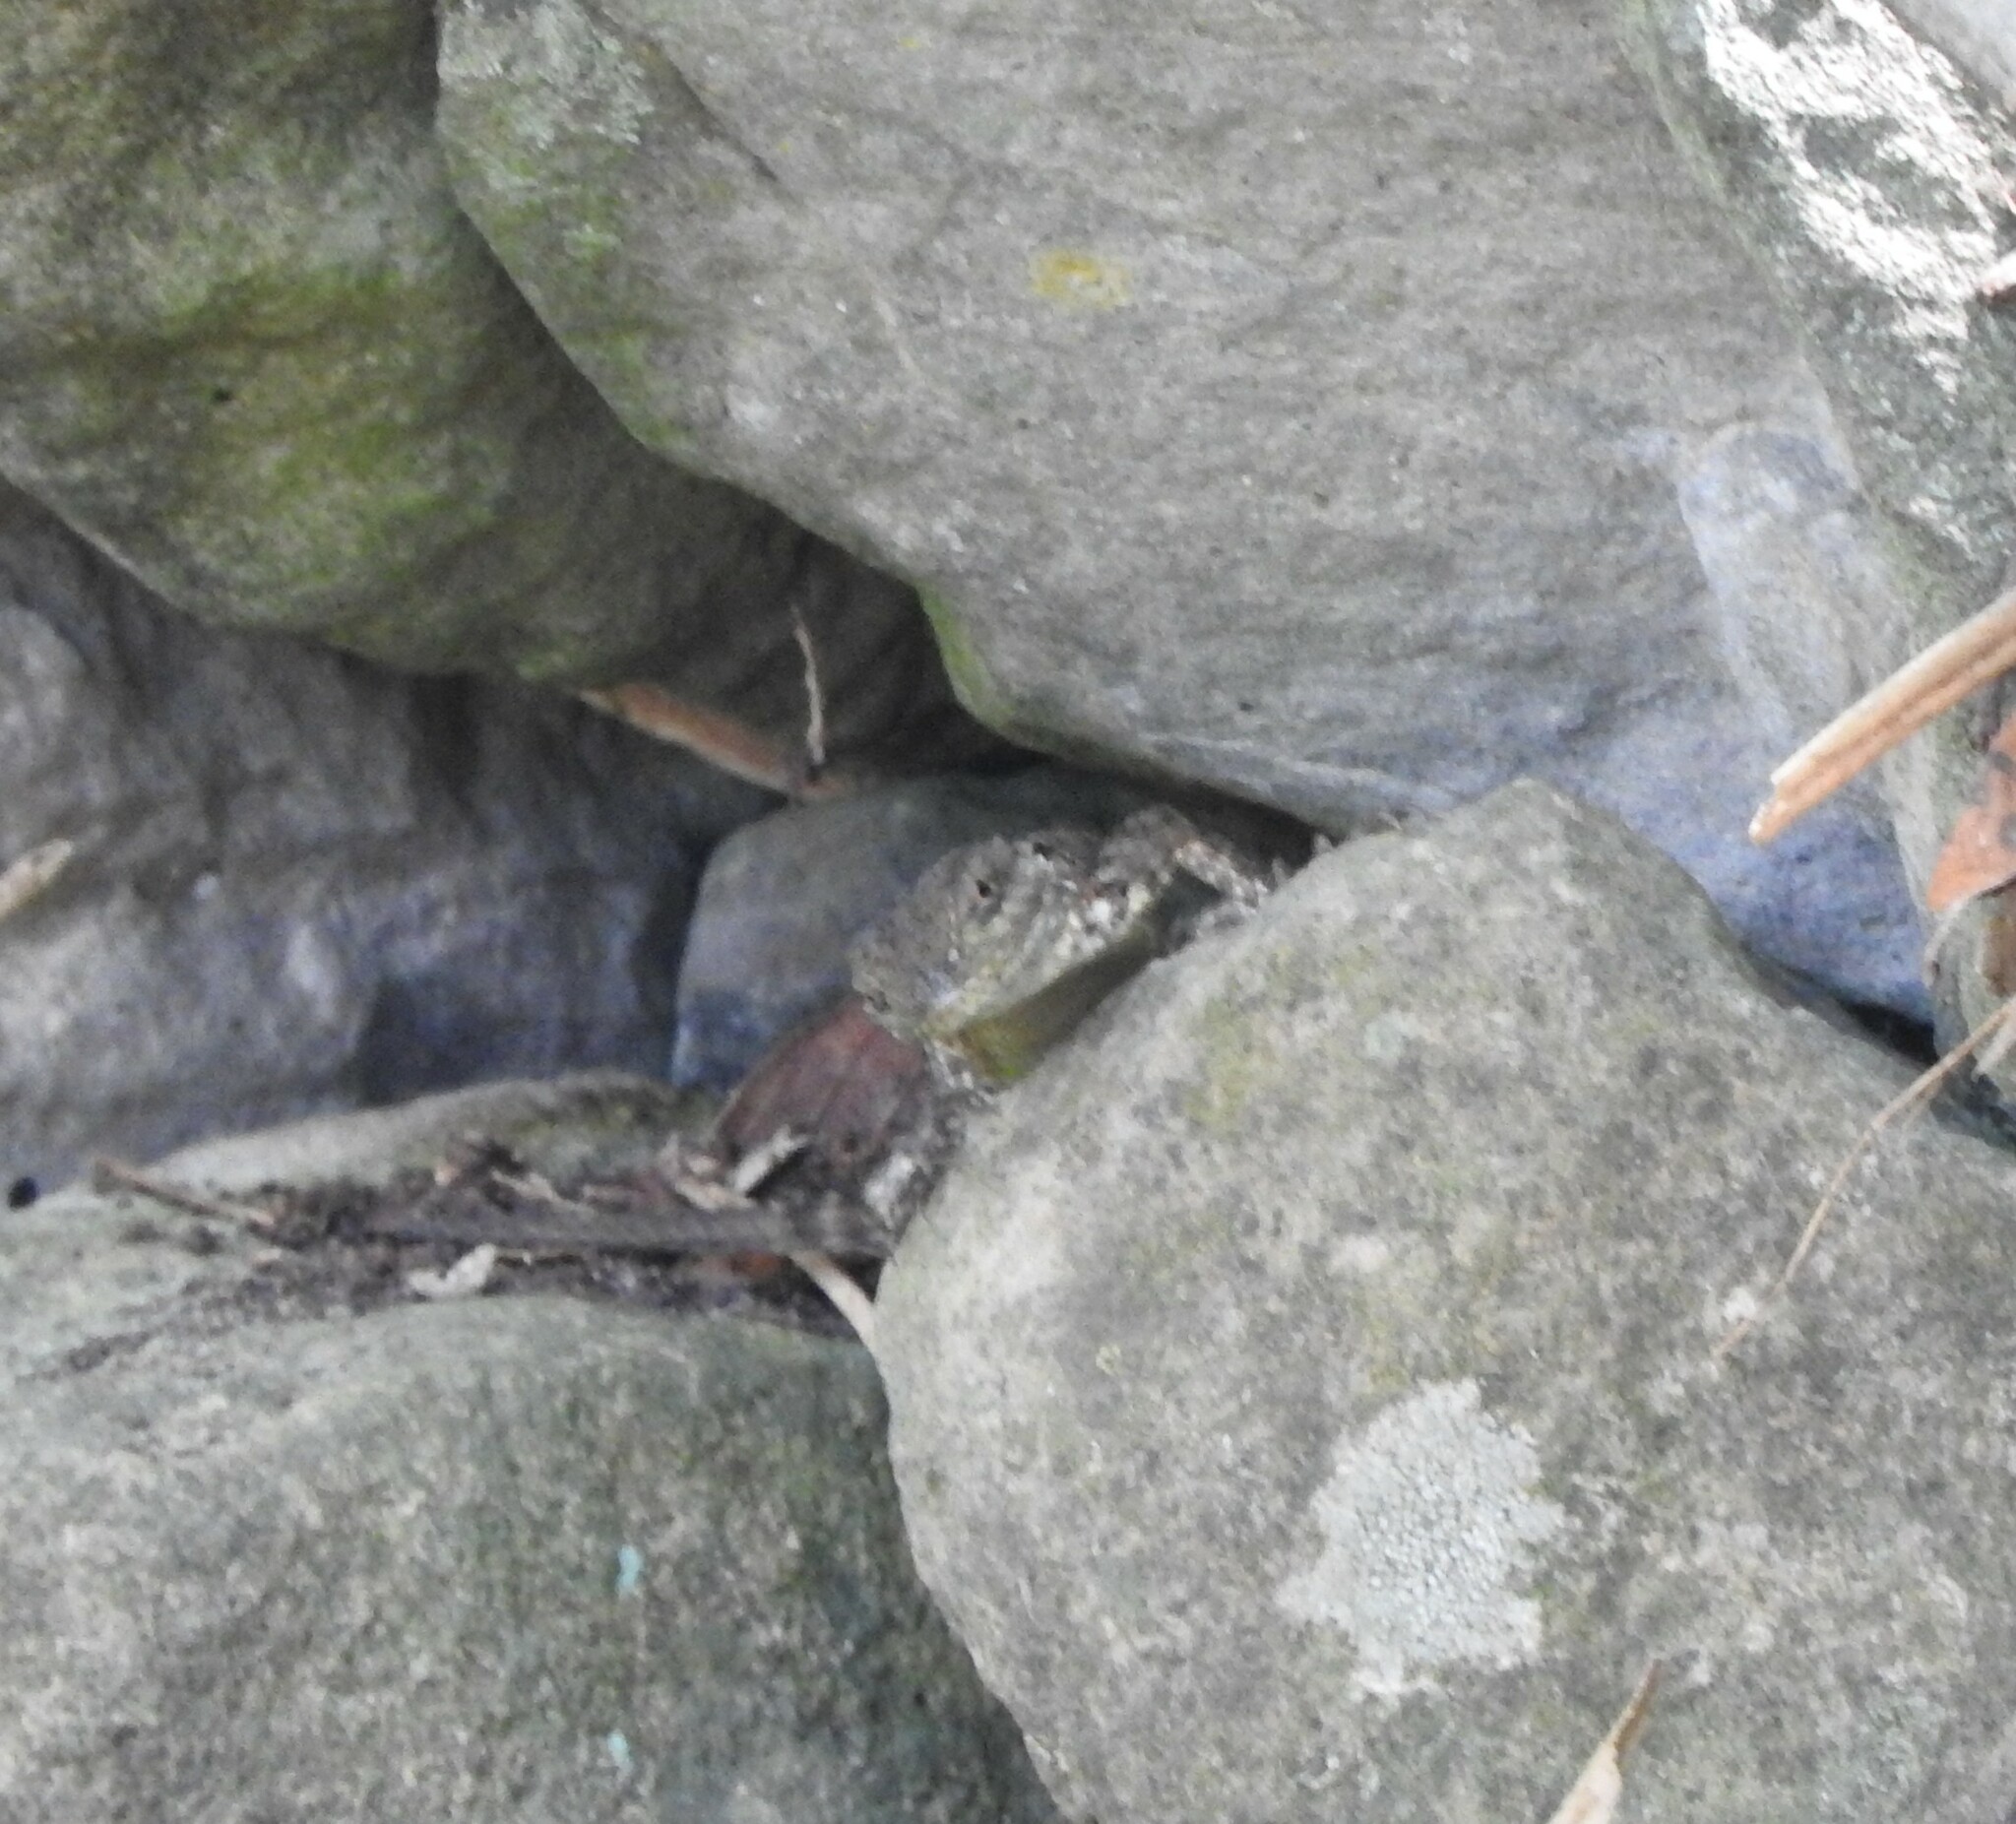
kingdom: Animalia
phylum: Chordata
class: Squamata
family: Phrynosomatidae
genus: Sceloporus
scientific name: Sceloporus dugesii
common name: Duges' spiny lizard
